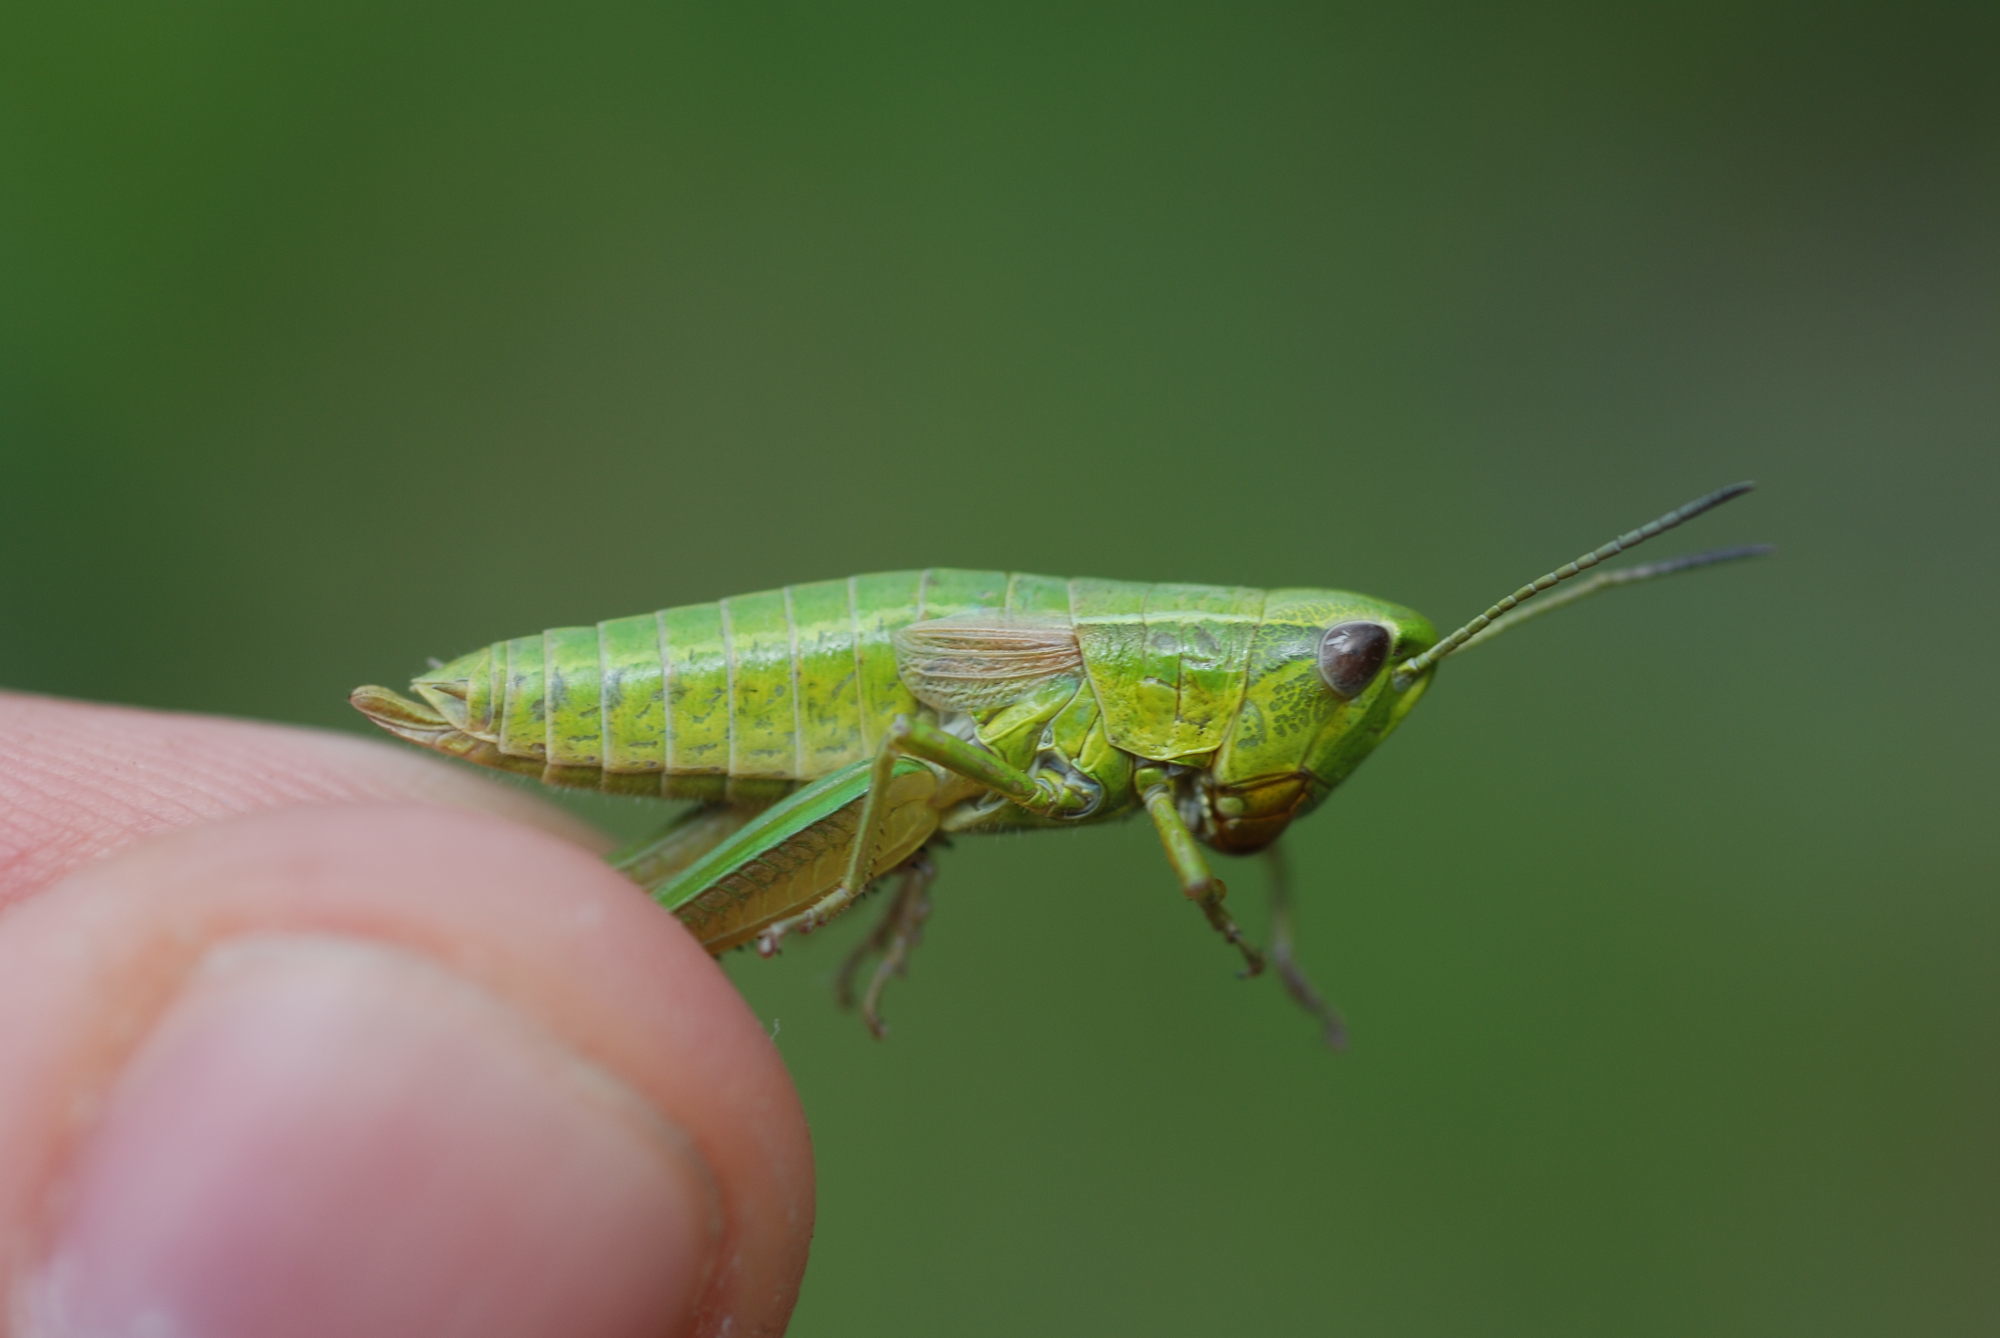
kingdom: Animalia
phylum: Arthropoda
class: Insecta
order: Orthoptera
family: Acrididae
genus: Euthystira
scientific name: Euthystira brachyptera
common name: Small gold grasshopper
